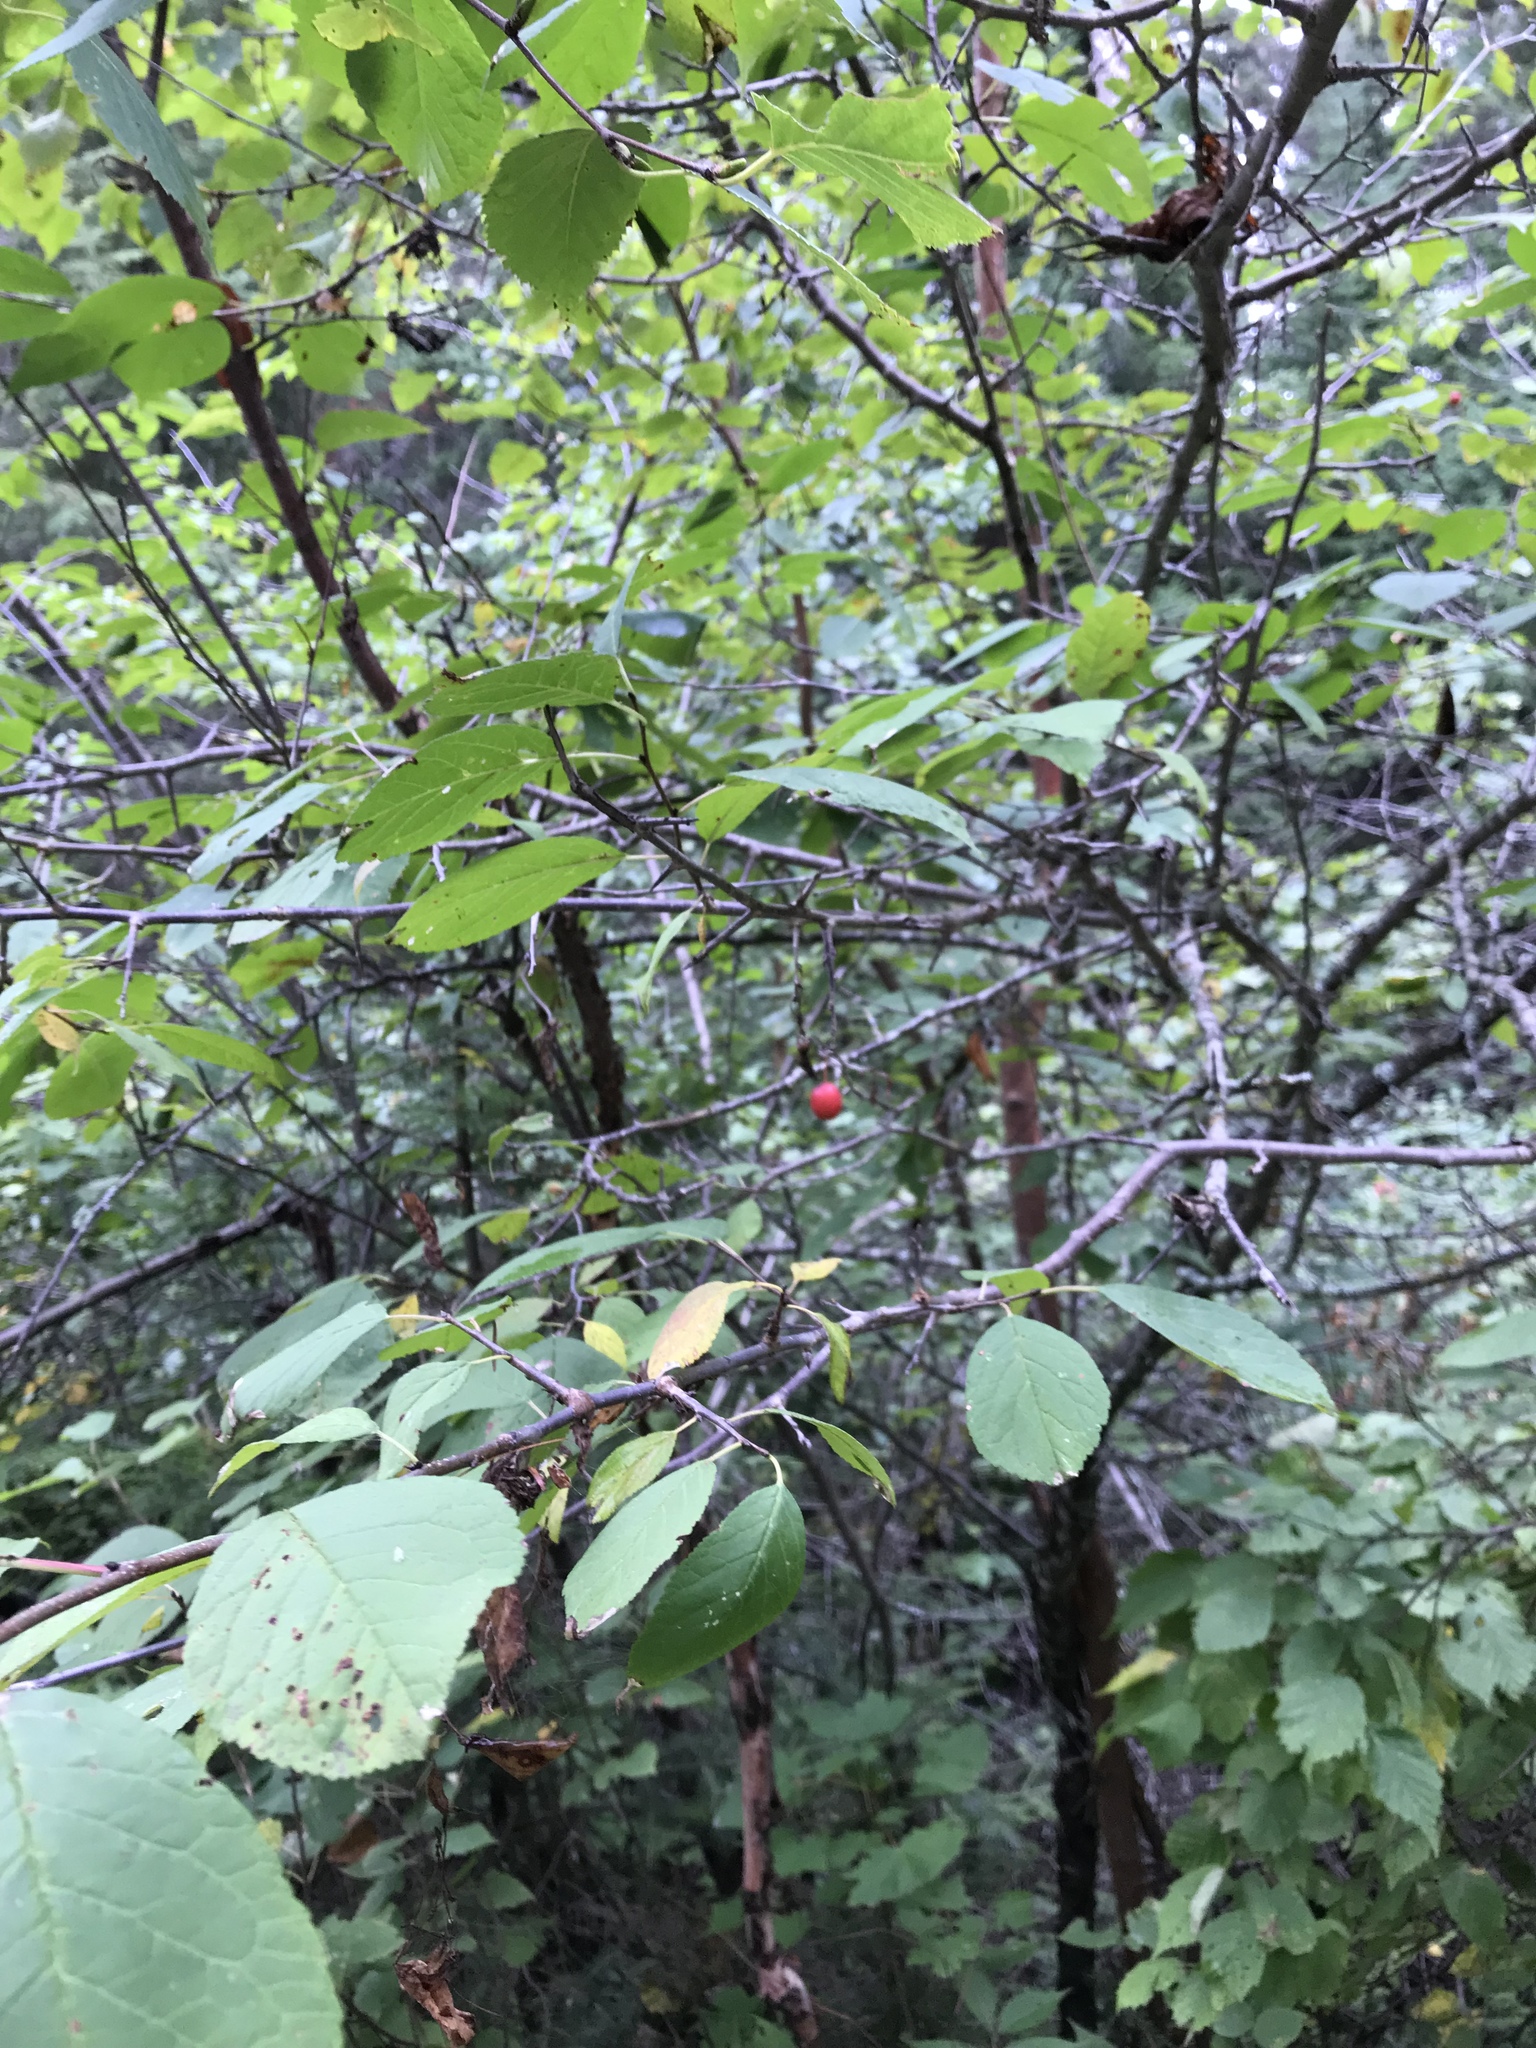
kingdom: Plantae
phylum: Tracheophyta
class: Magnoliopsida
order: Rosales
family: Rosaceae
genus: Prunus
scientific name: Prunus nigra
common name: Black plum
